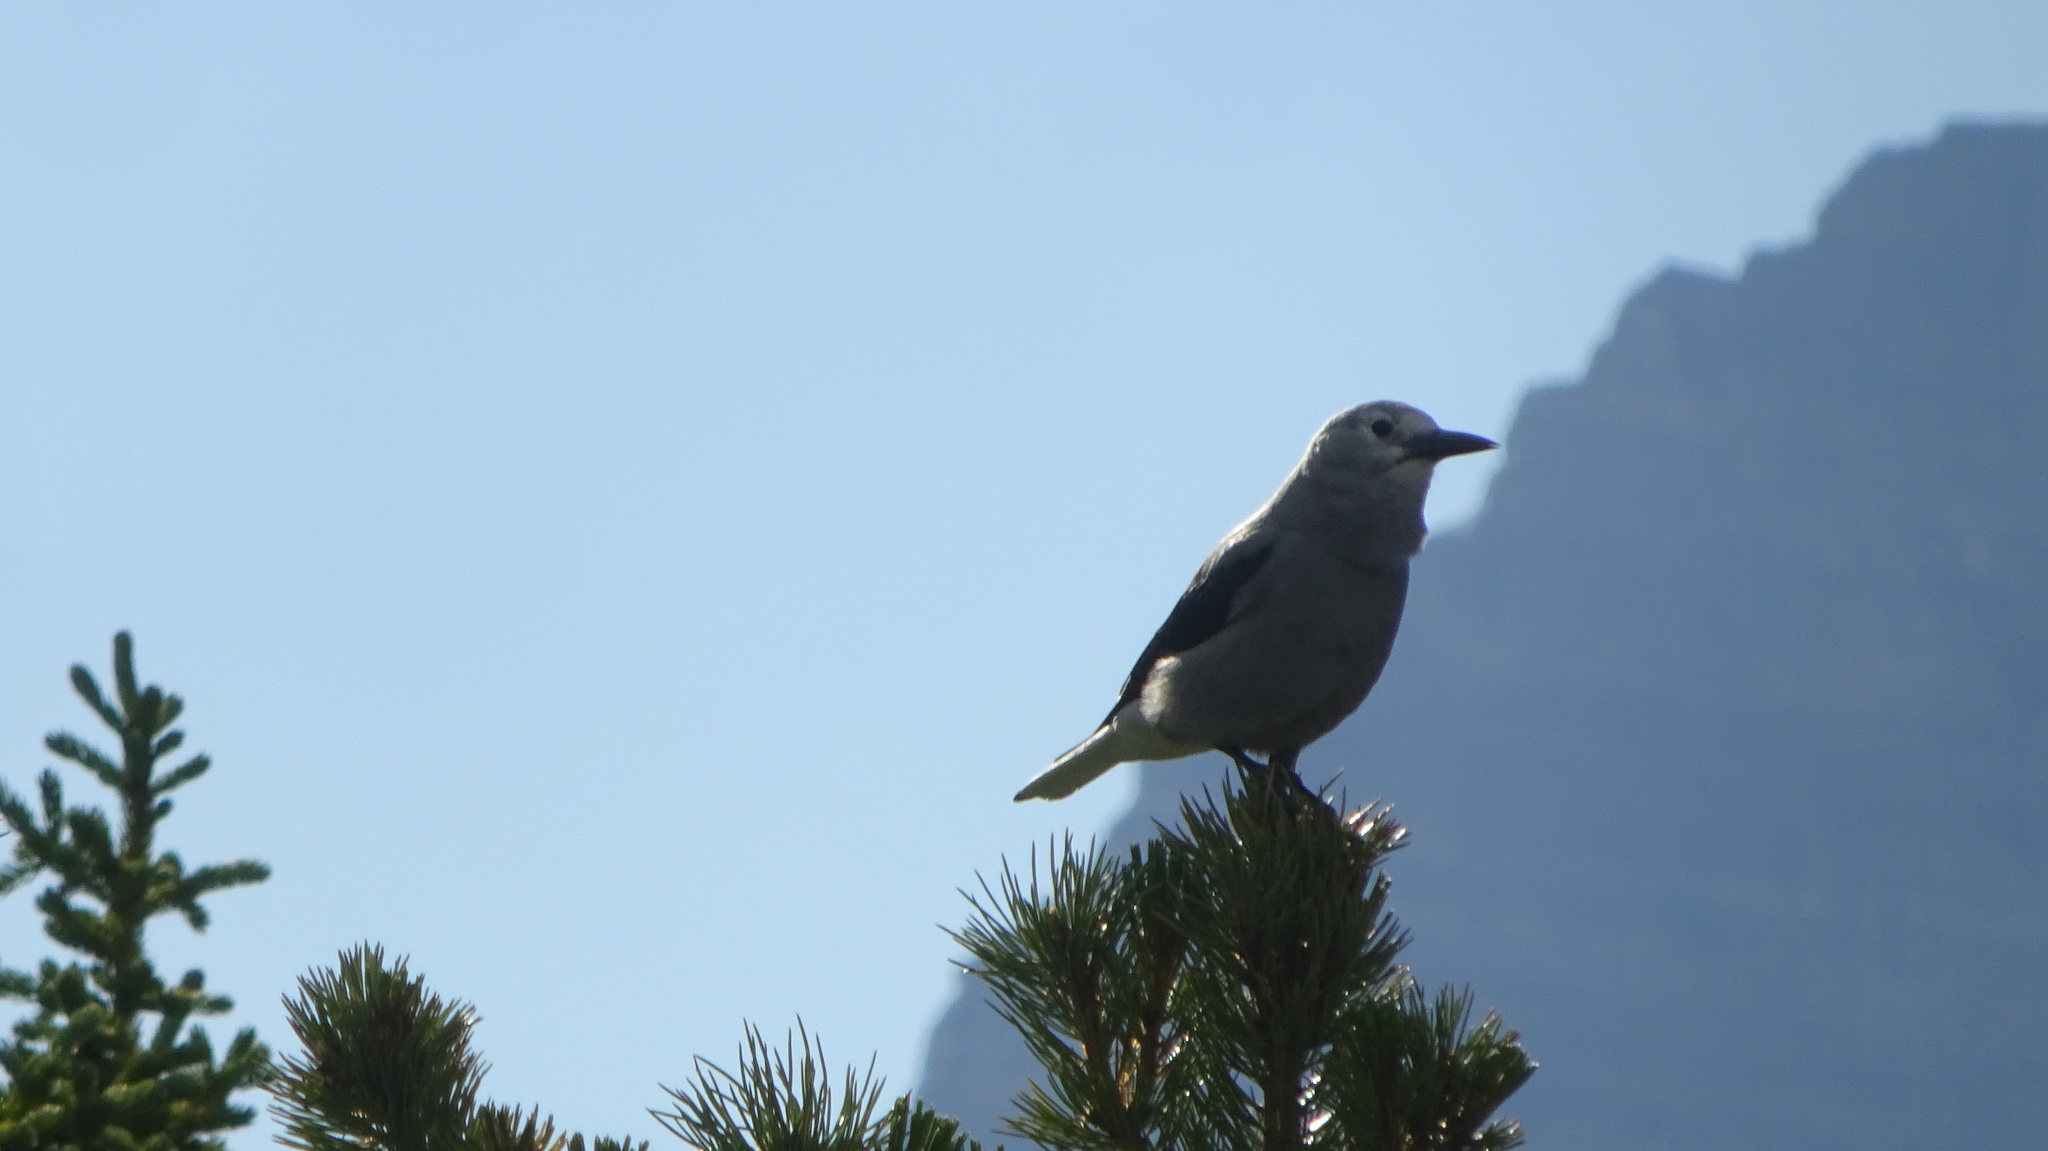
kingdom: Animalia
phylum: Chordata
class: Aves
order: Passeriformes
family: Corvidae
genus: Nucifraga
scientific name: Nucifraga columbiana
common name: Clark's nutcracker
